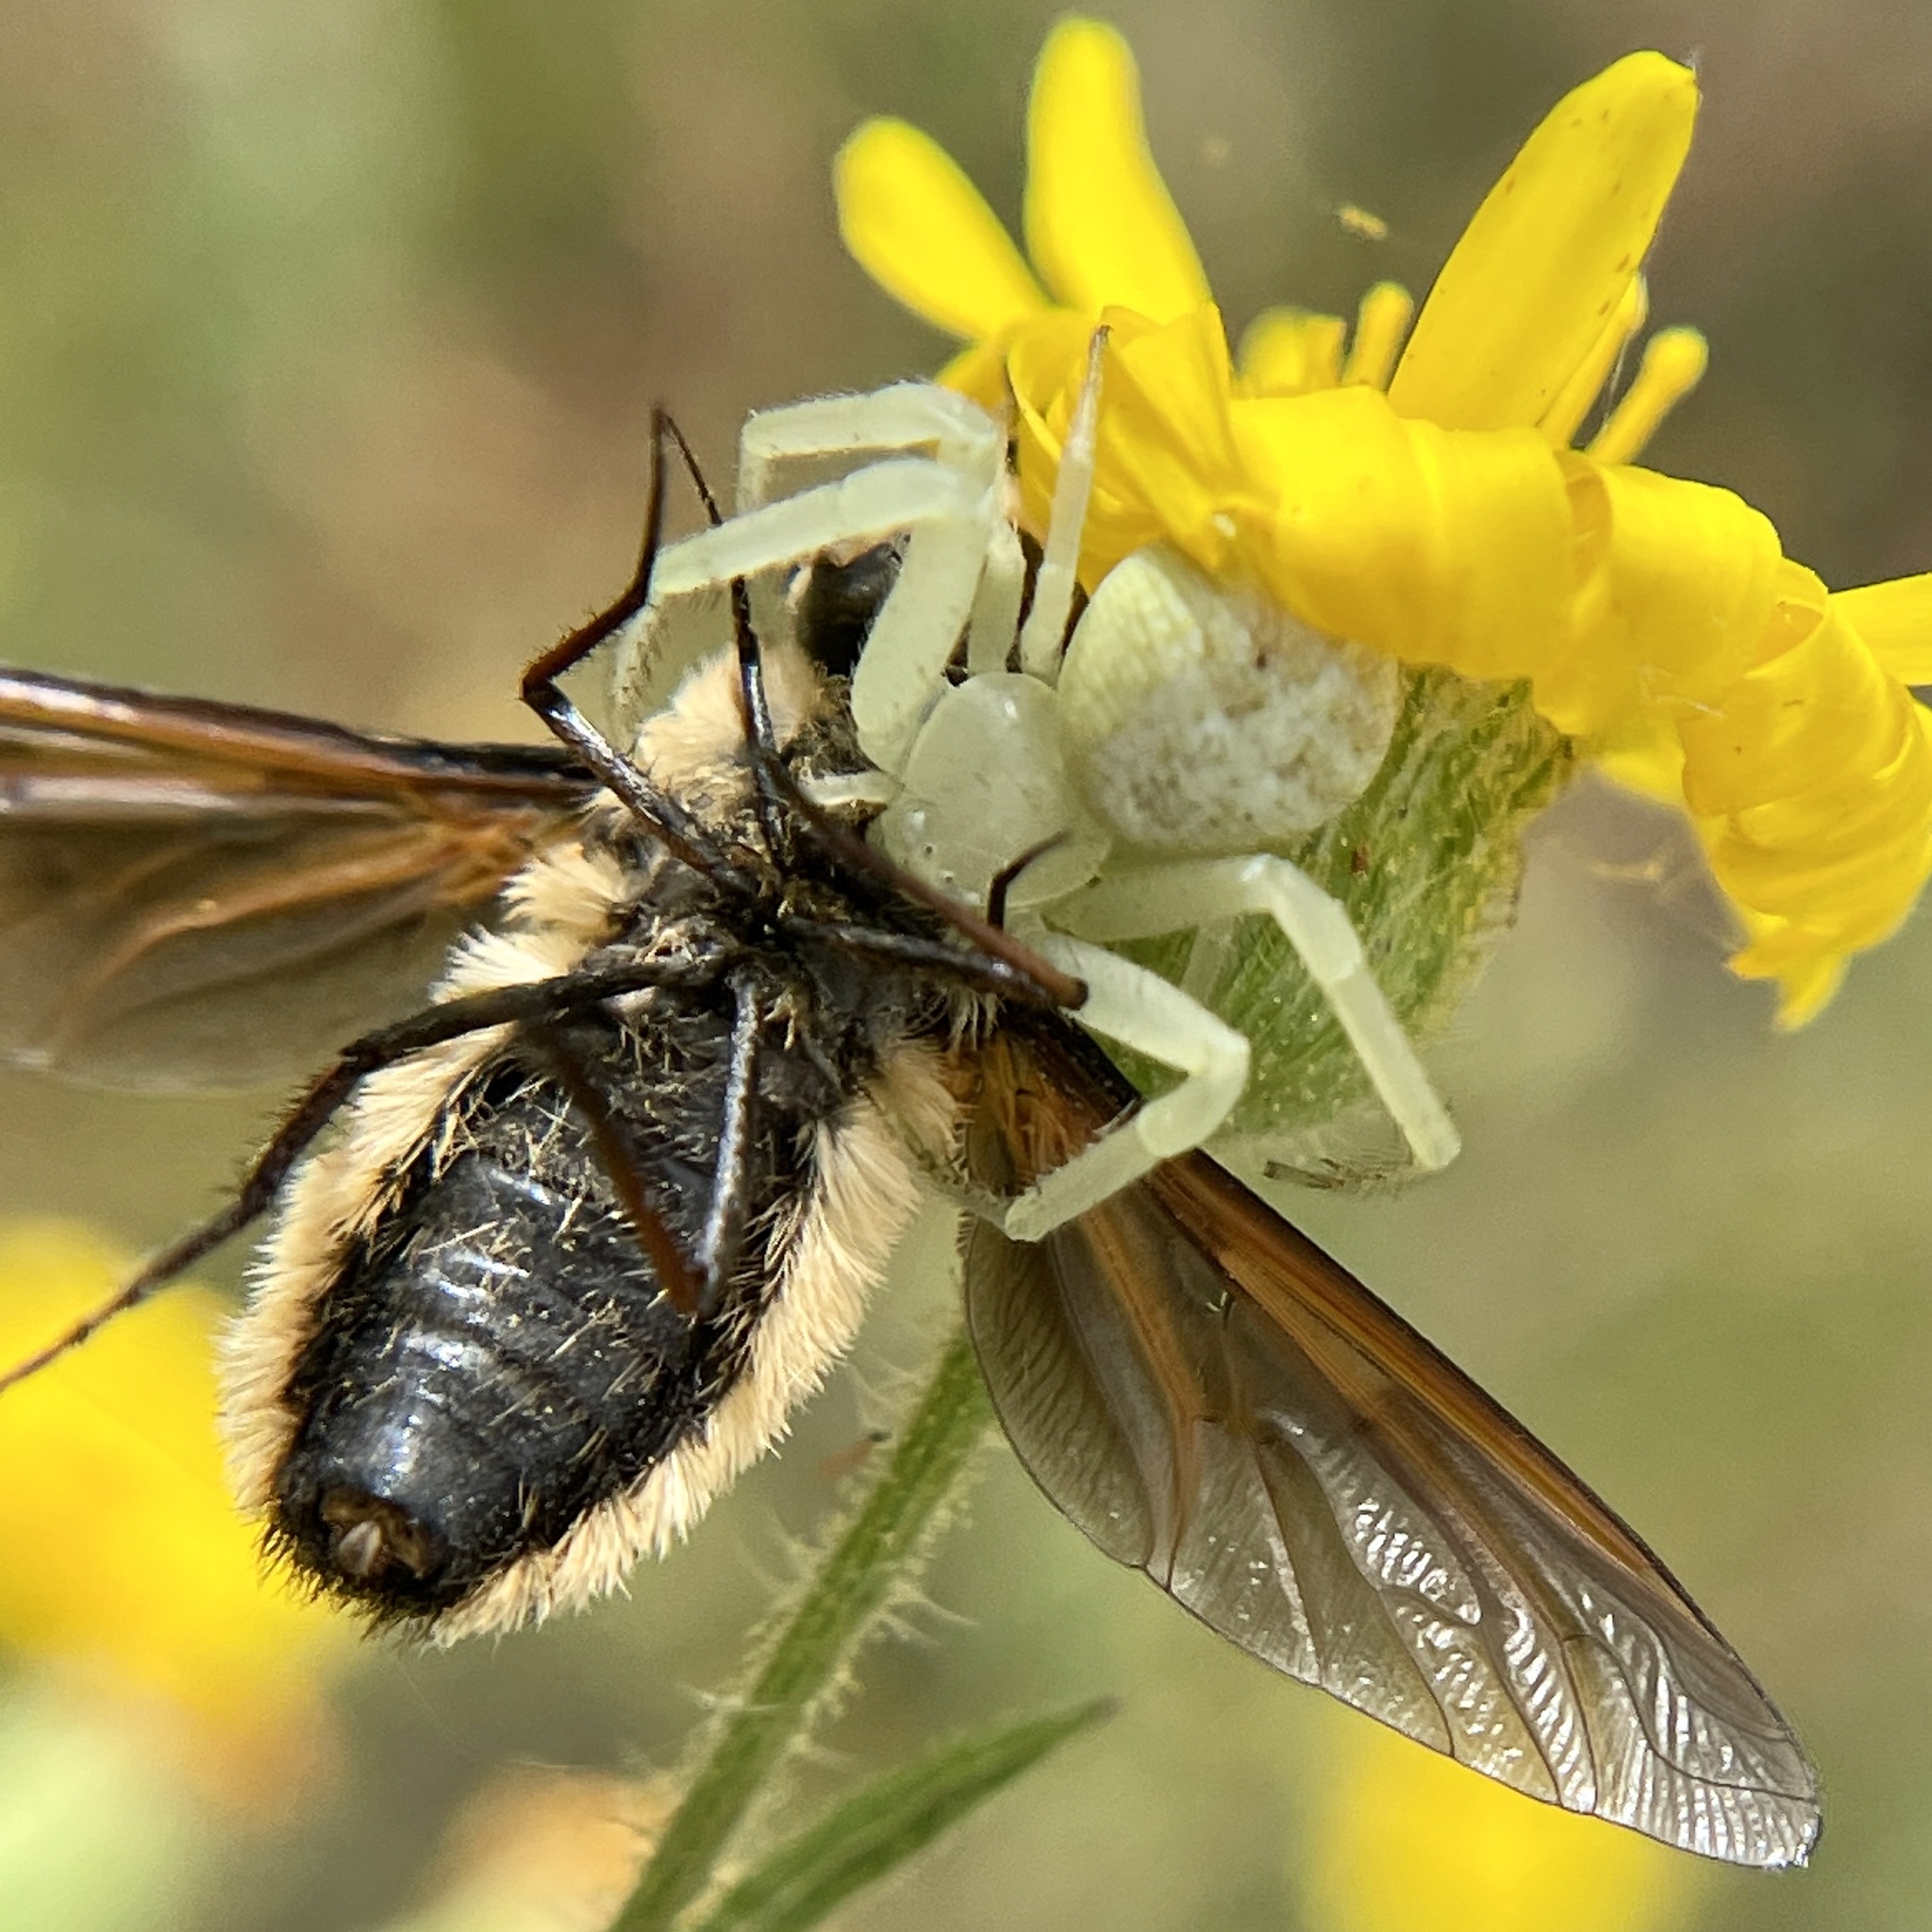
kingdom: Animalia
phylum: Arthropoda
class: Insecta
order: Diptera
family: Bombyliidae
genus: Poecilanthrax
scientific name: Poecilanthrax lucifer
